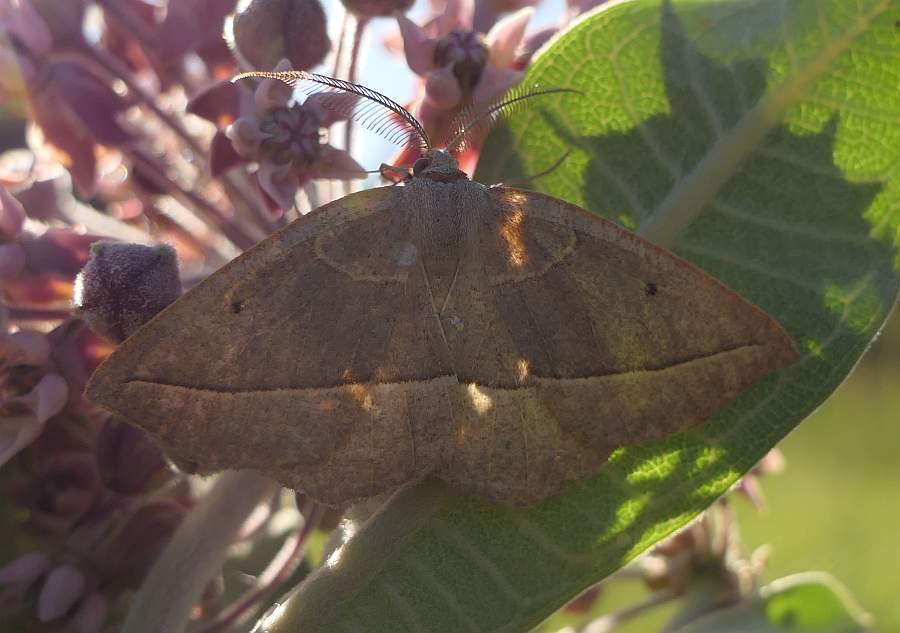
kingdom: Animalia
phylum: Arthropoda
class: Insecta
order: Lepidoptera
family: Geometridae
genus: Eusarca
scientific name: Eusarca confusaria
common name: Confused eusarca
